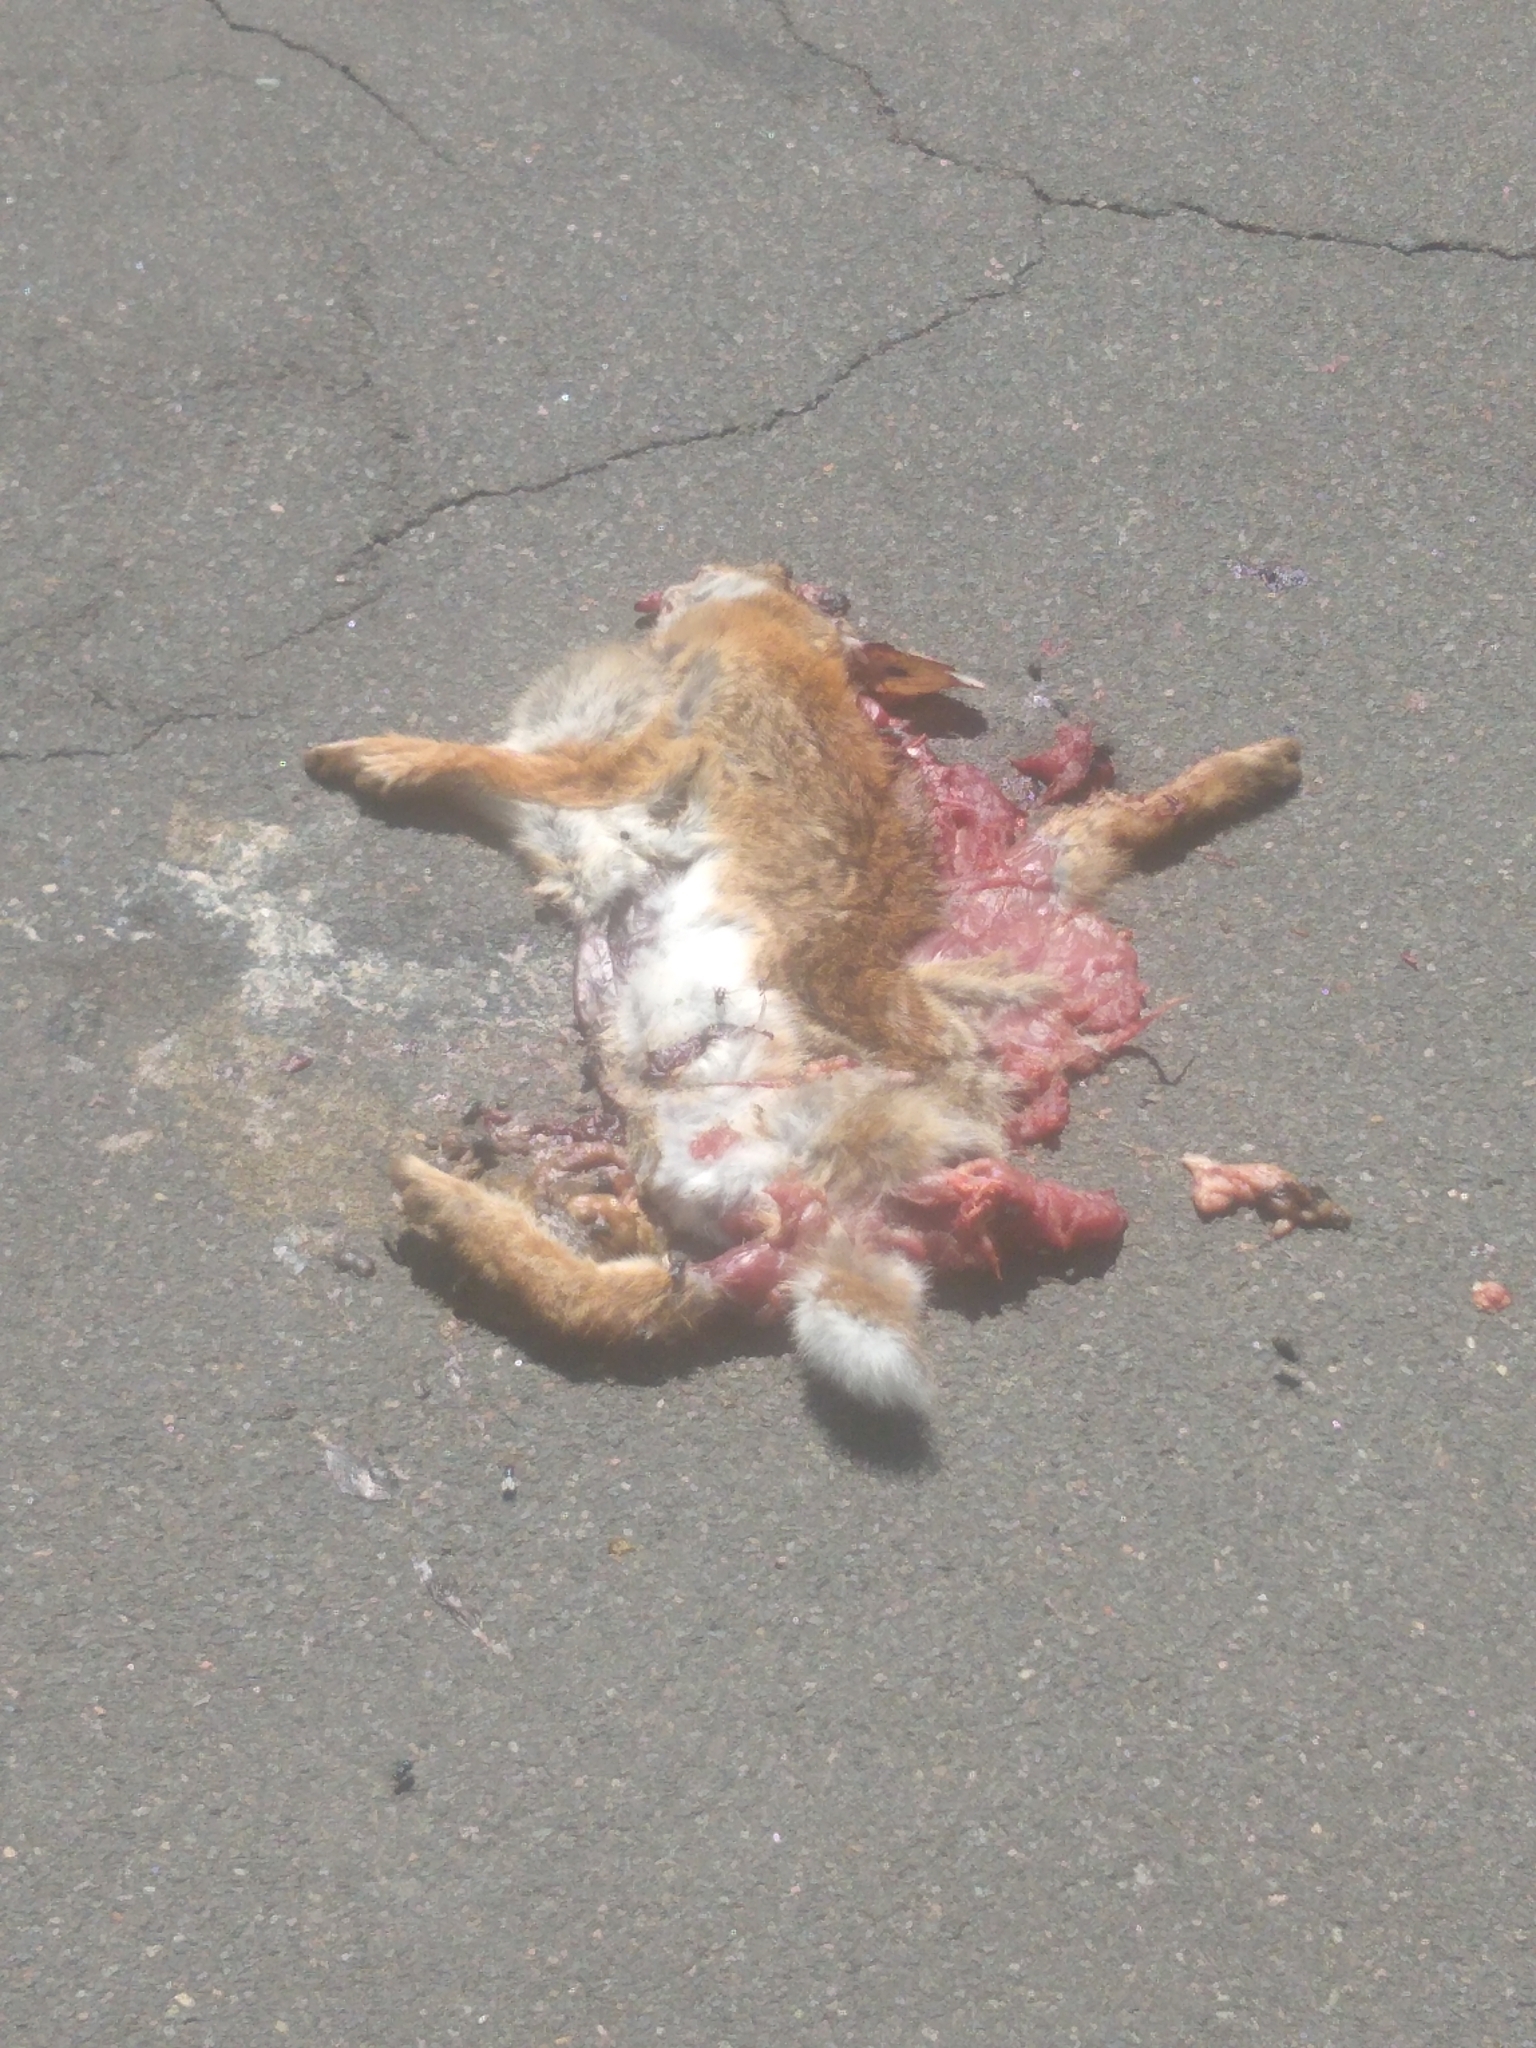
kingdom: Animalia
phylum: Chordata
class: Mammalia
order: Lagomorpha
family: Leporidae
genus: Sylvilagus
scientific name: Sylvilagus floridanus
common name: Eastern cottontail
